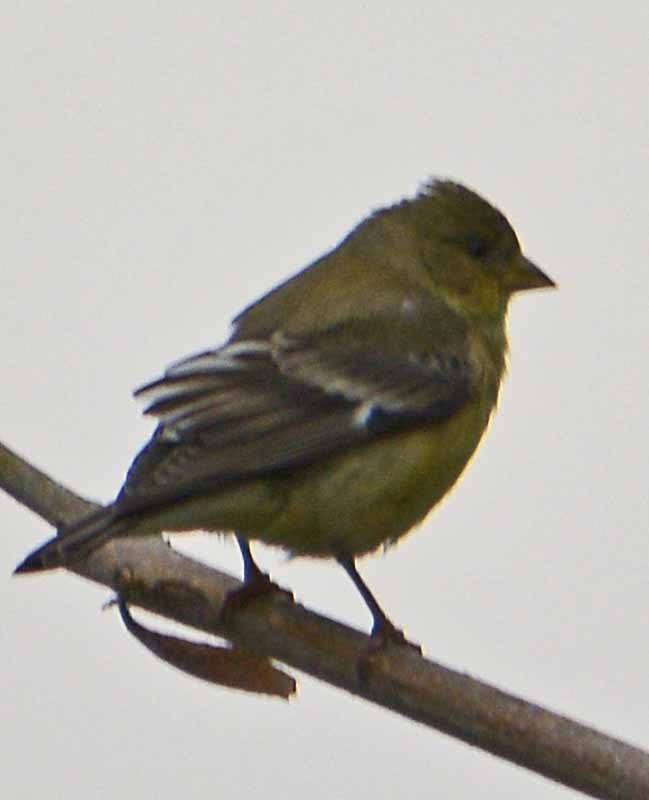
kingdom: Animalia
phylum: Chordata
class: Aves
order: Passeriformes
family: Fringillidae
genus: Spinus
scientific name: Spinus psaltria
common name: Lesser goldfinch
